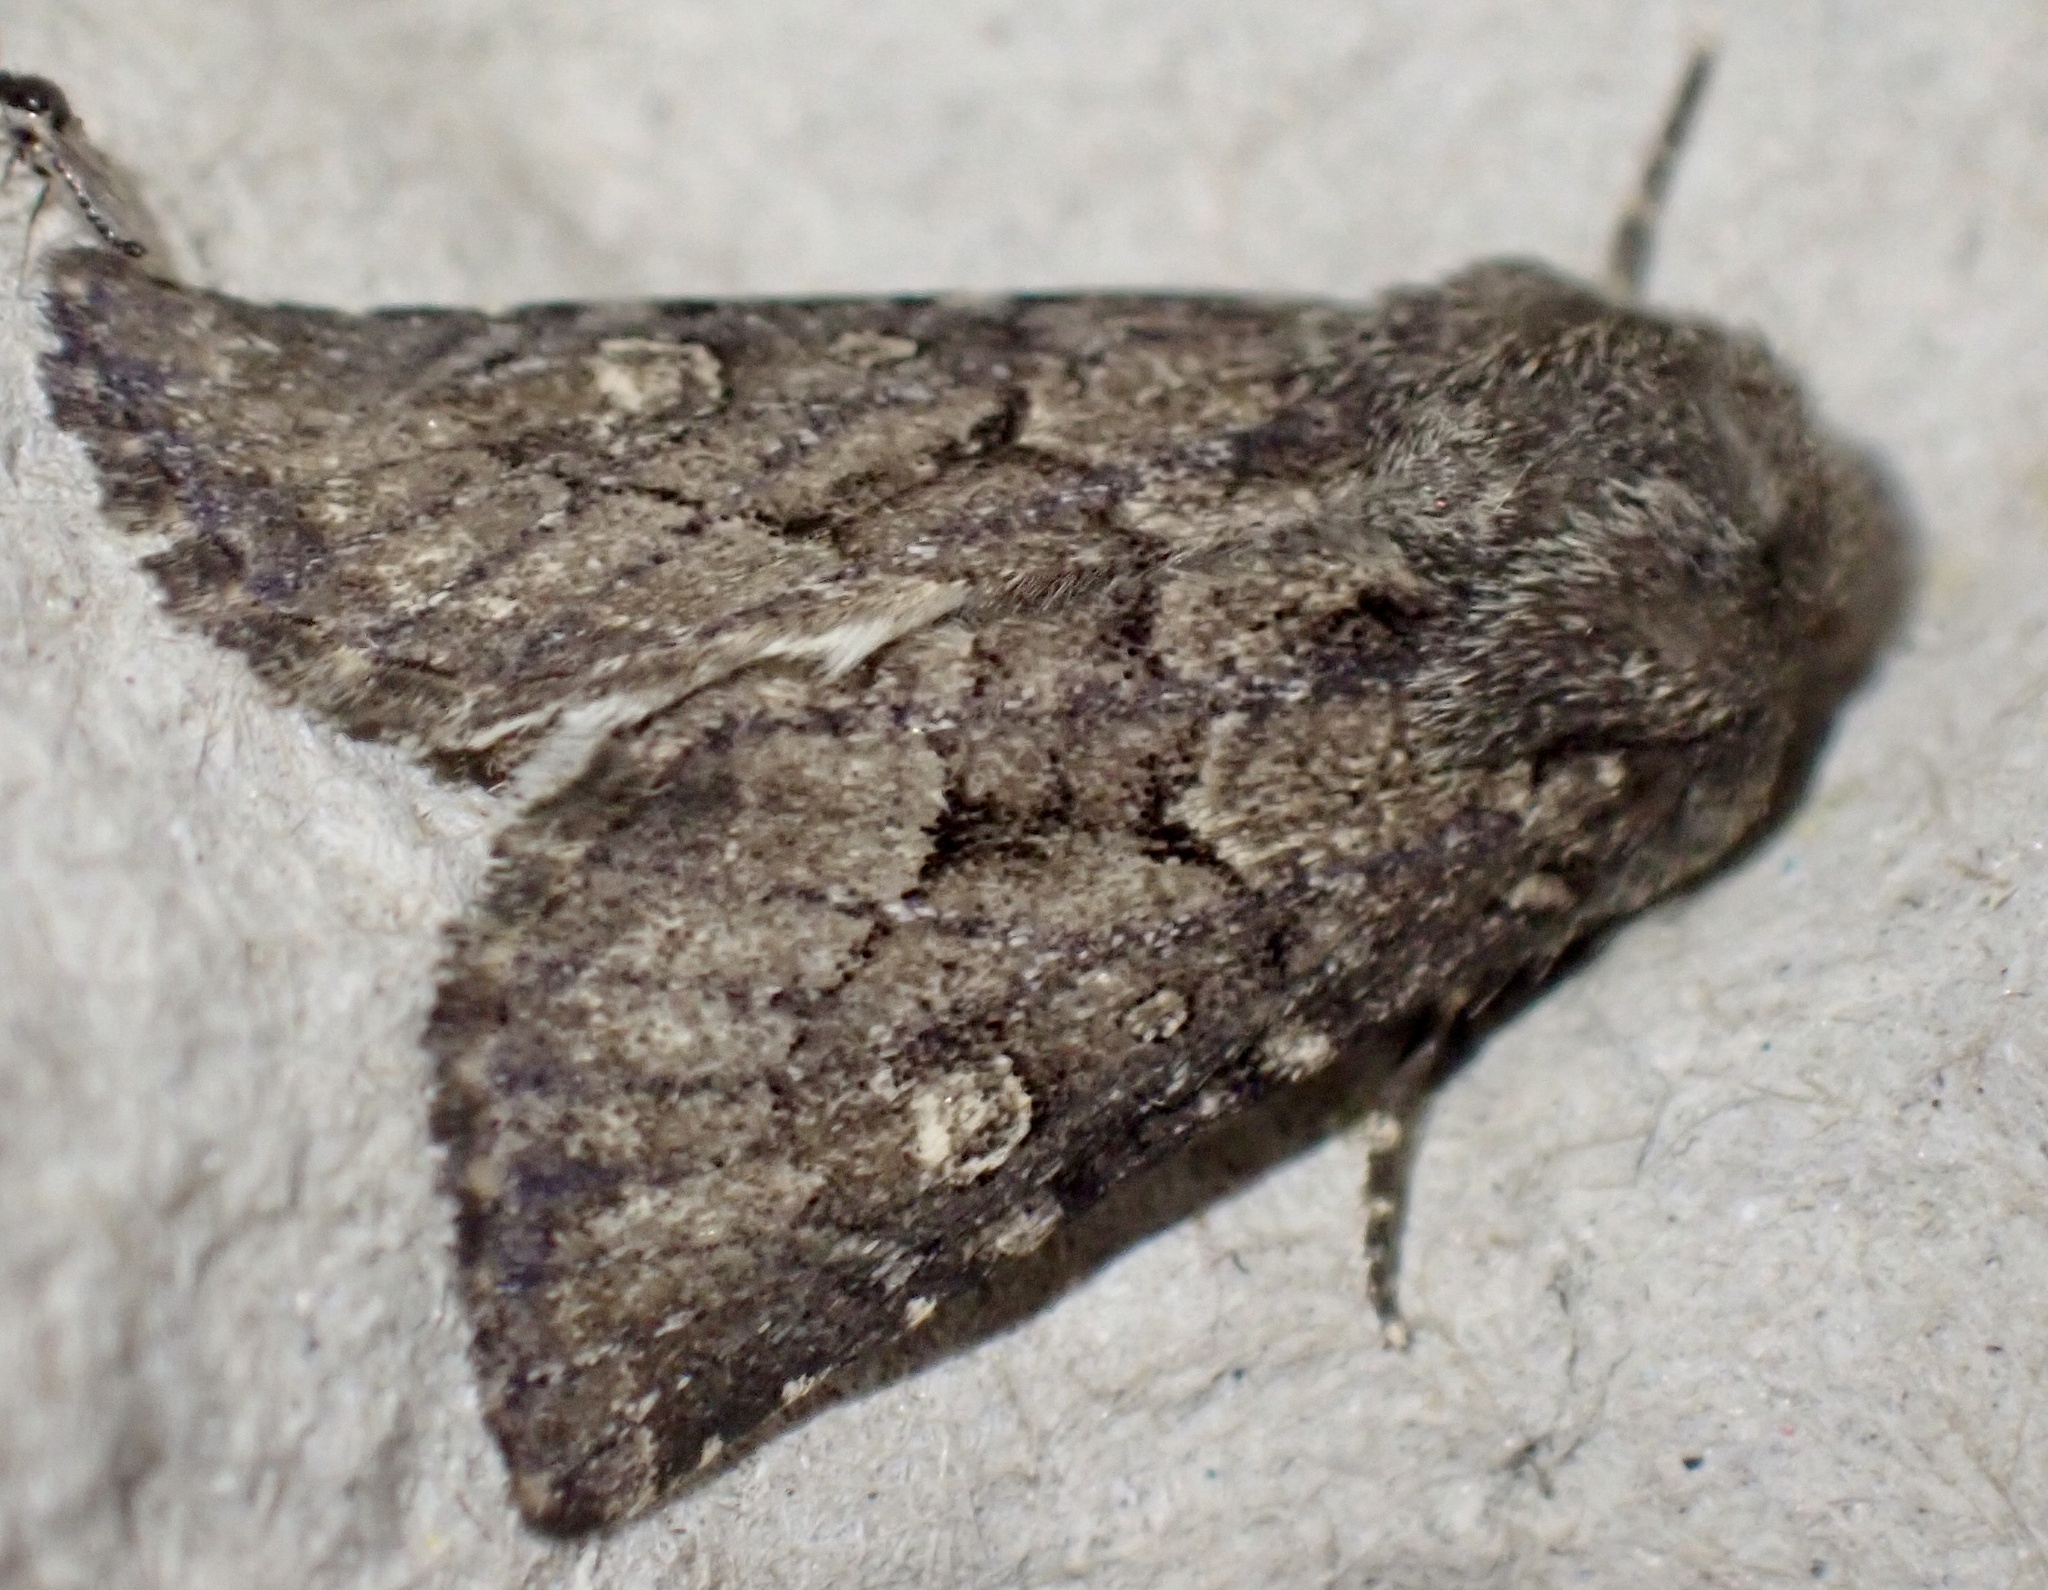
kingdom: Animalia
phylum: Arthropoda
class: Insecta
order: Lepidoptera
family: Noctuidae
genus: Luperina
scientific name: Luperina testacea
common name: Flounced rustic
